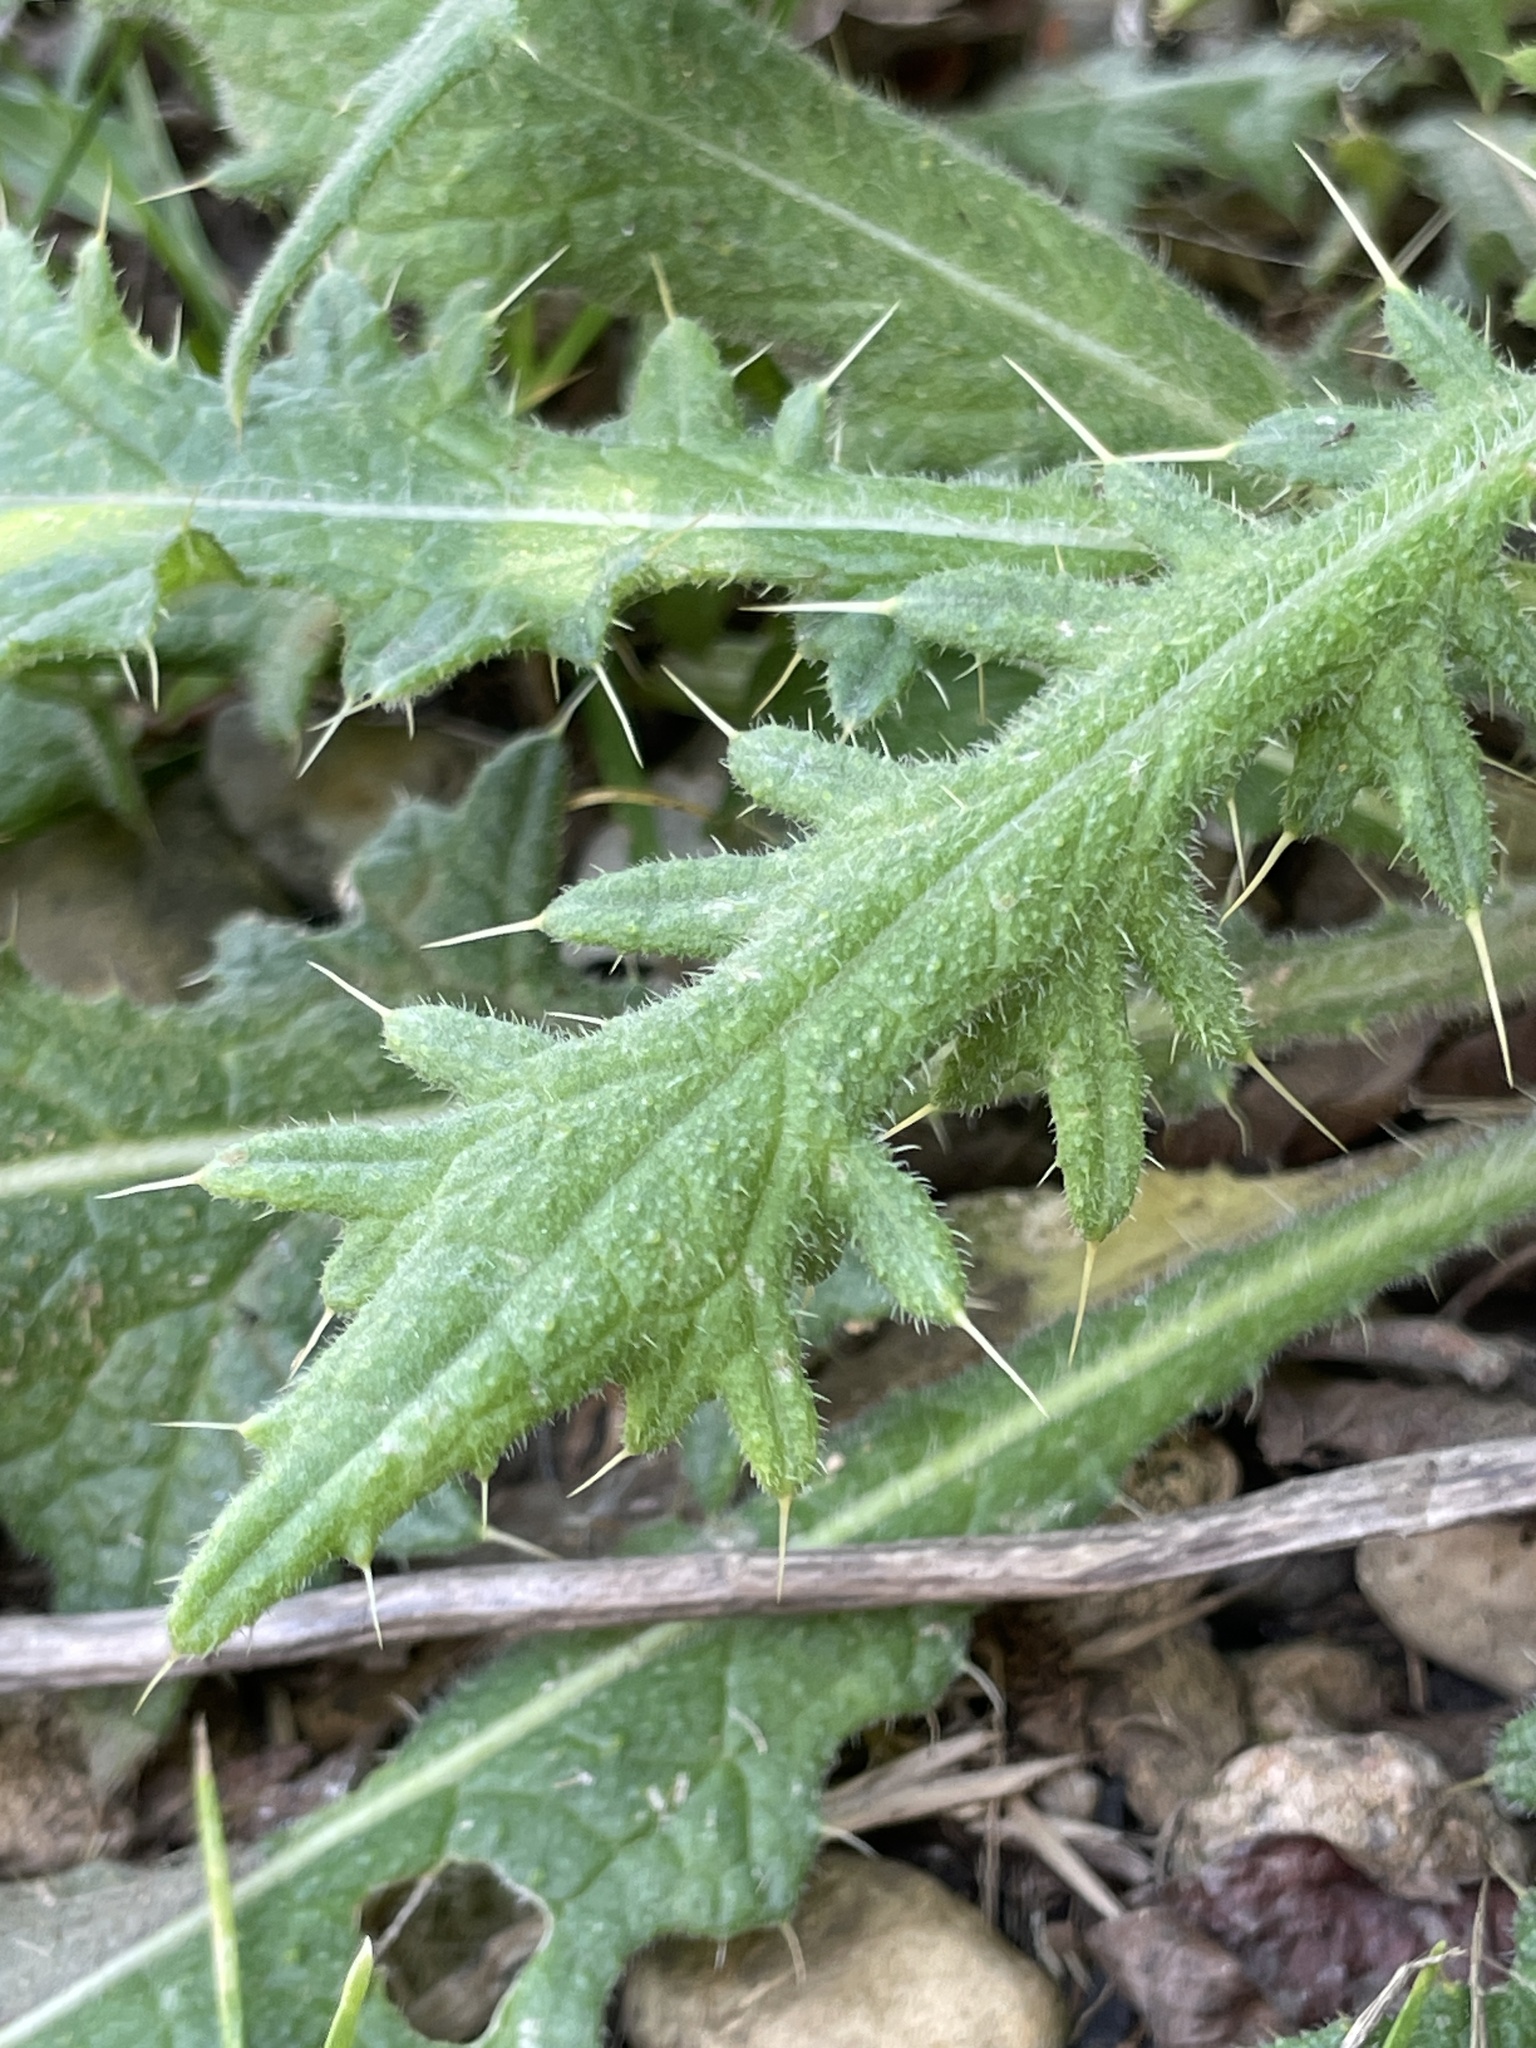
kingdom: Plantae
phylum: Tracheophyta
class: Magnoliopsida
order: Asterales
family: Asteraceae
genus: Cirsium
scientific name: Cirsium vulgare
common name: Bull thistle
